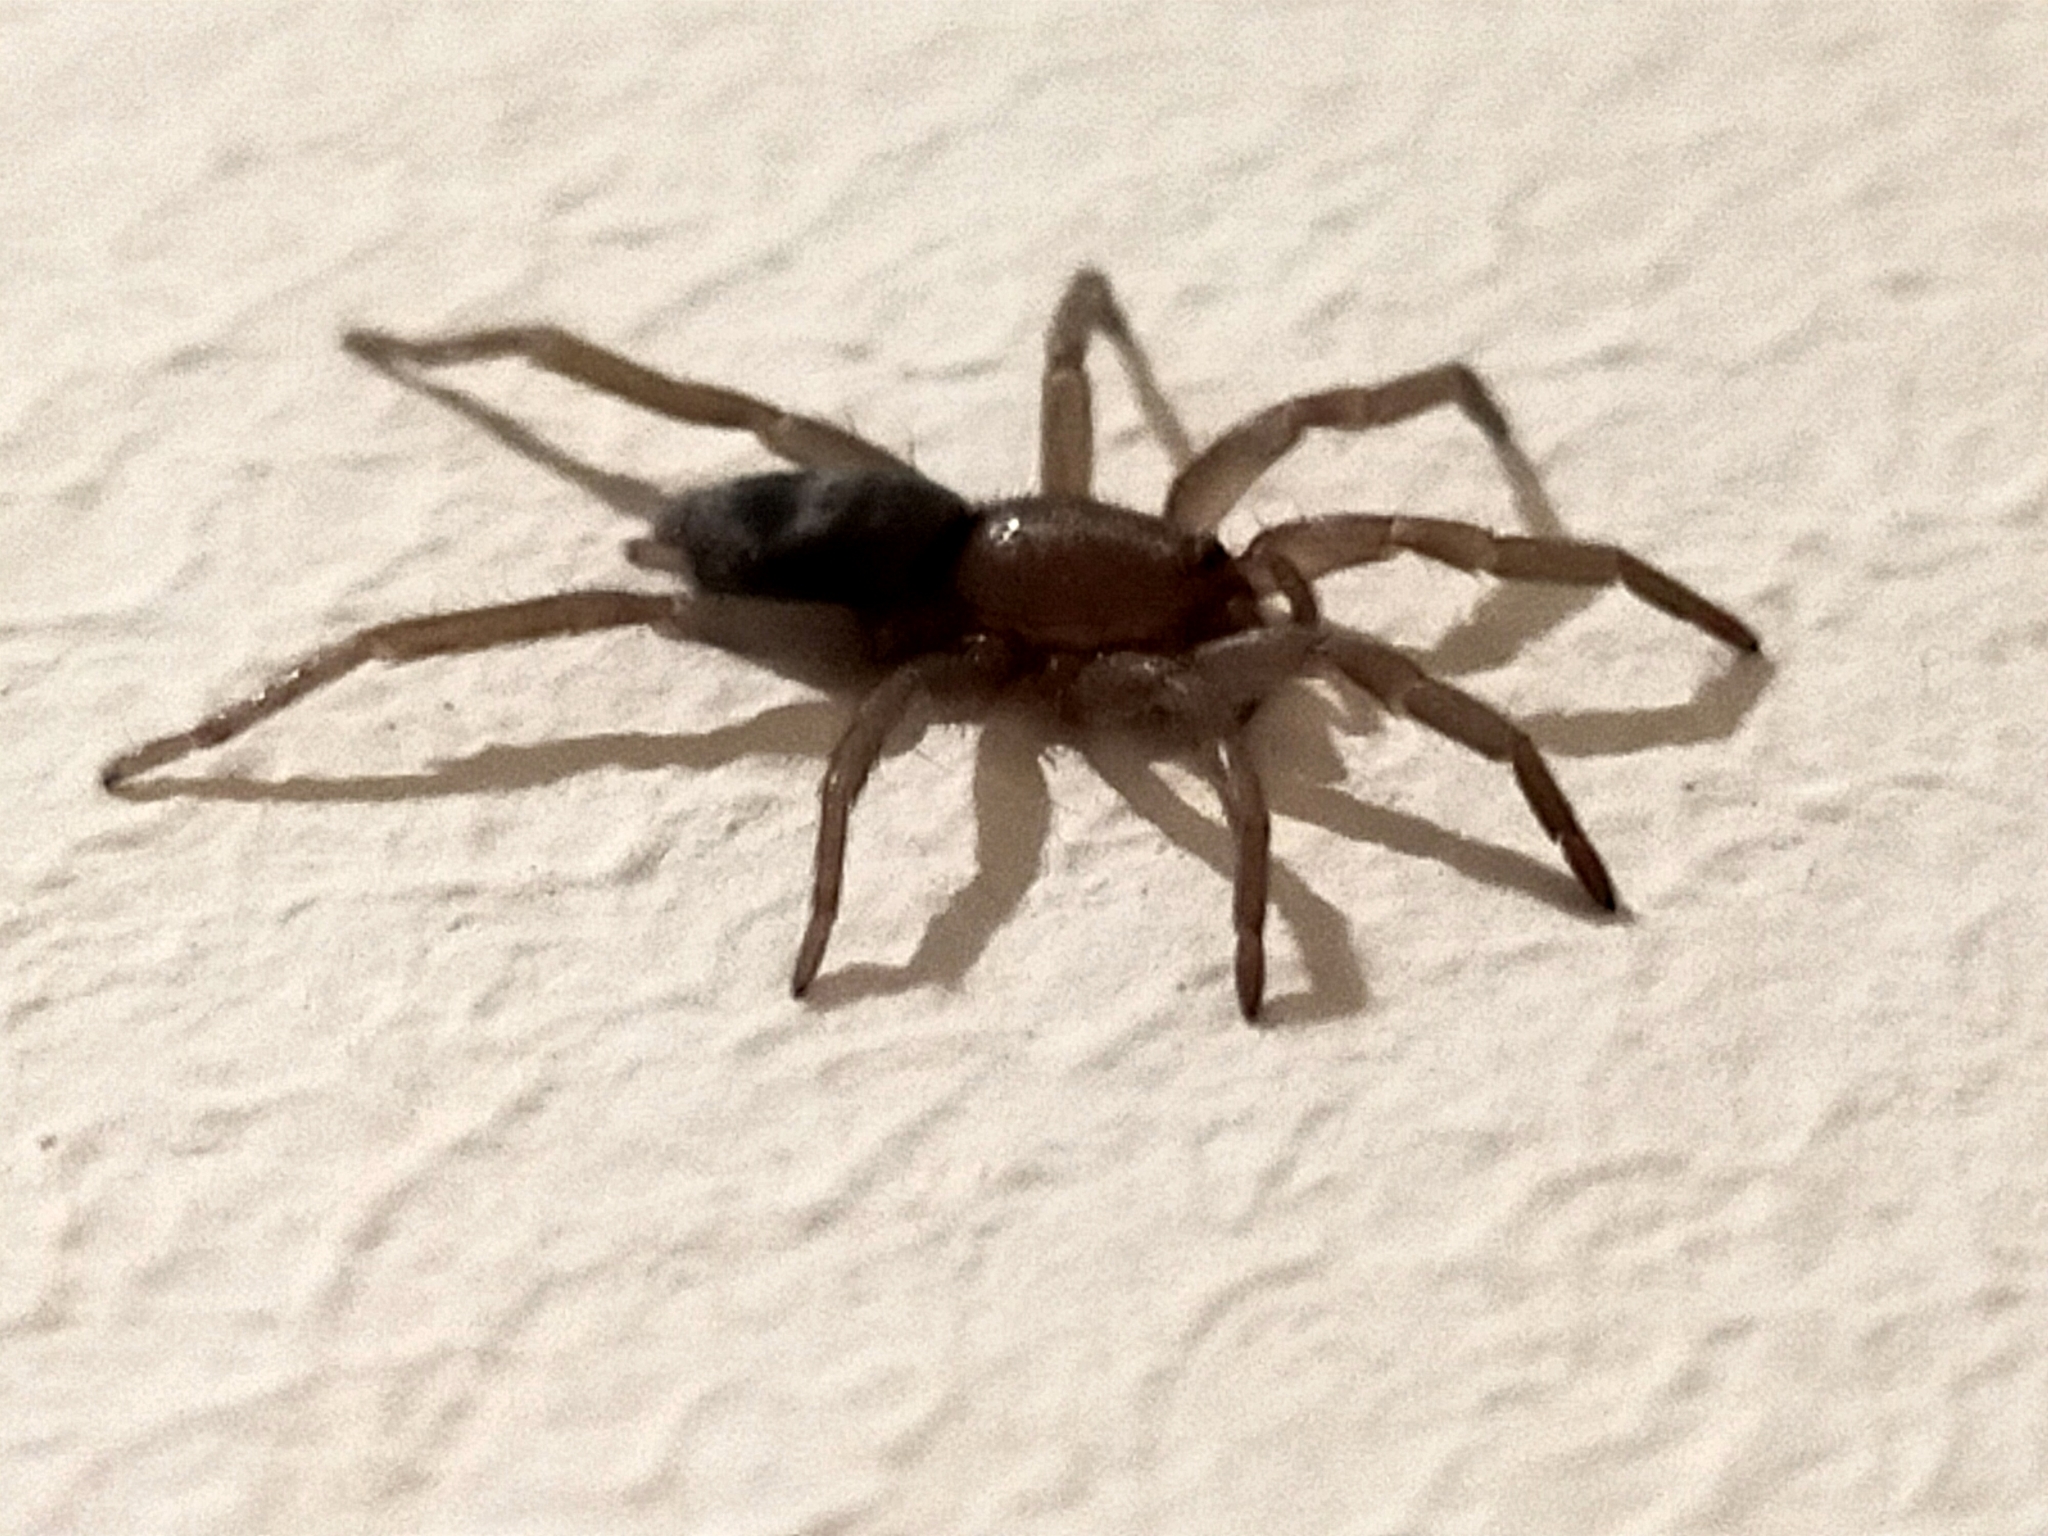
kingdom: Animalia
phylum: Arthropoda
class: Arachnida
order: Araneae
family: Gnaphosidae
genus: Scotophaeus
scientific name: Scotophaeus blackwalli
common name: Mouse spider
